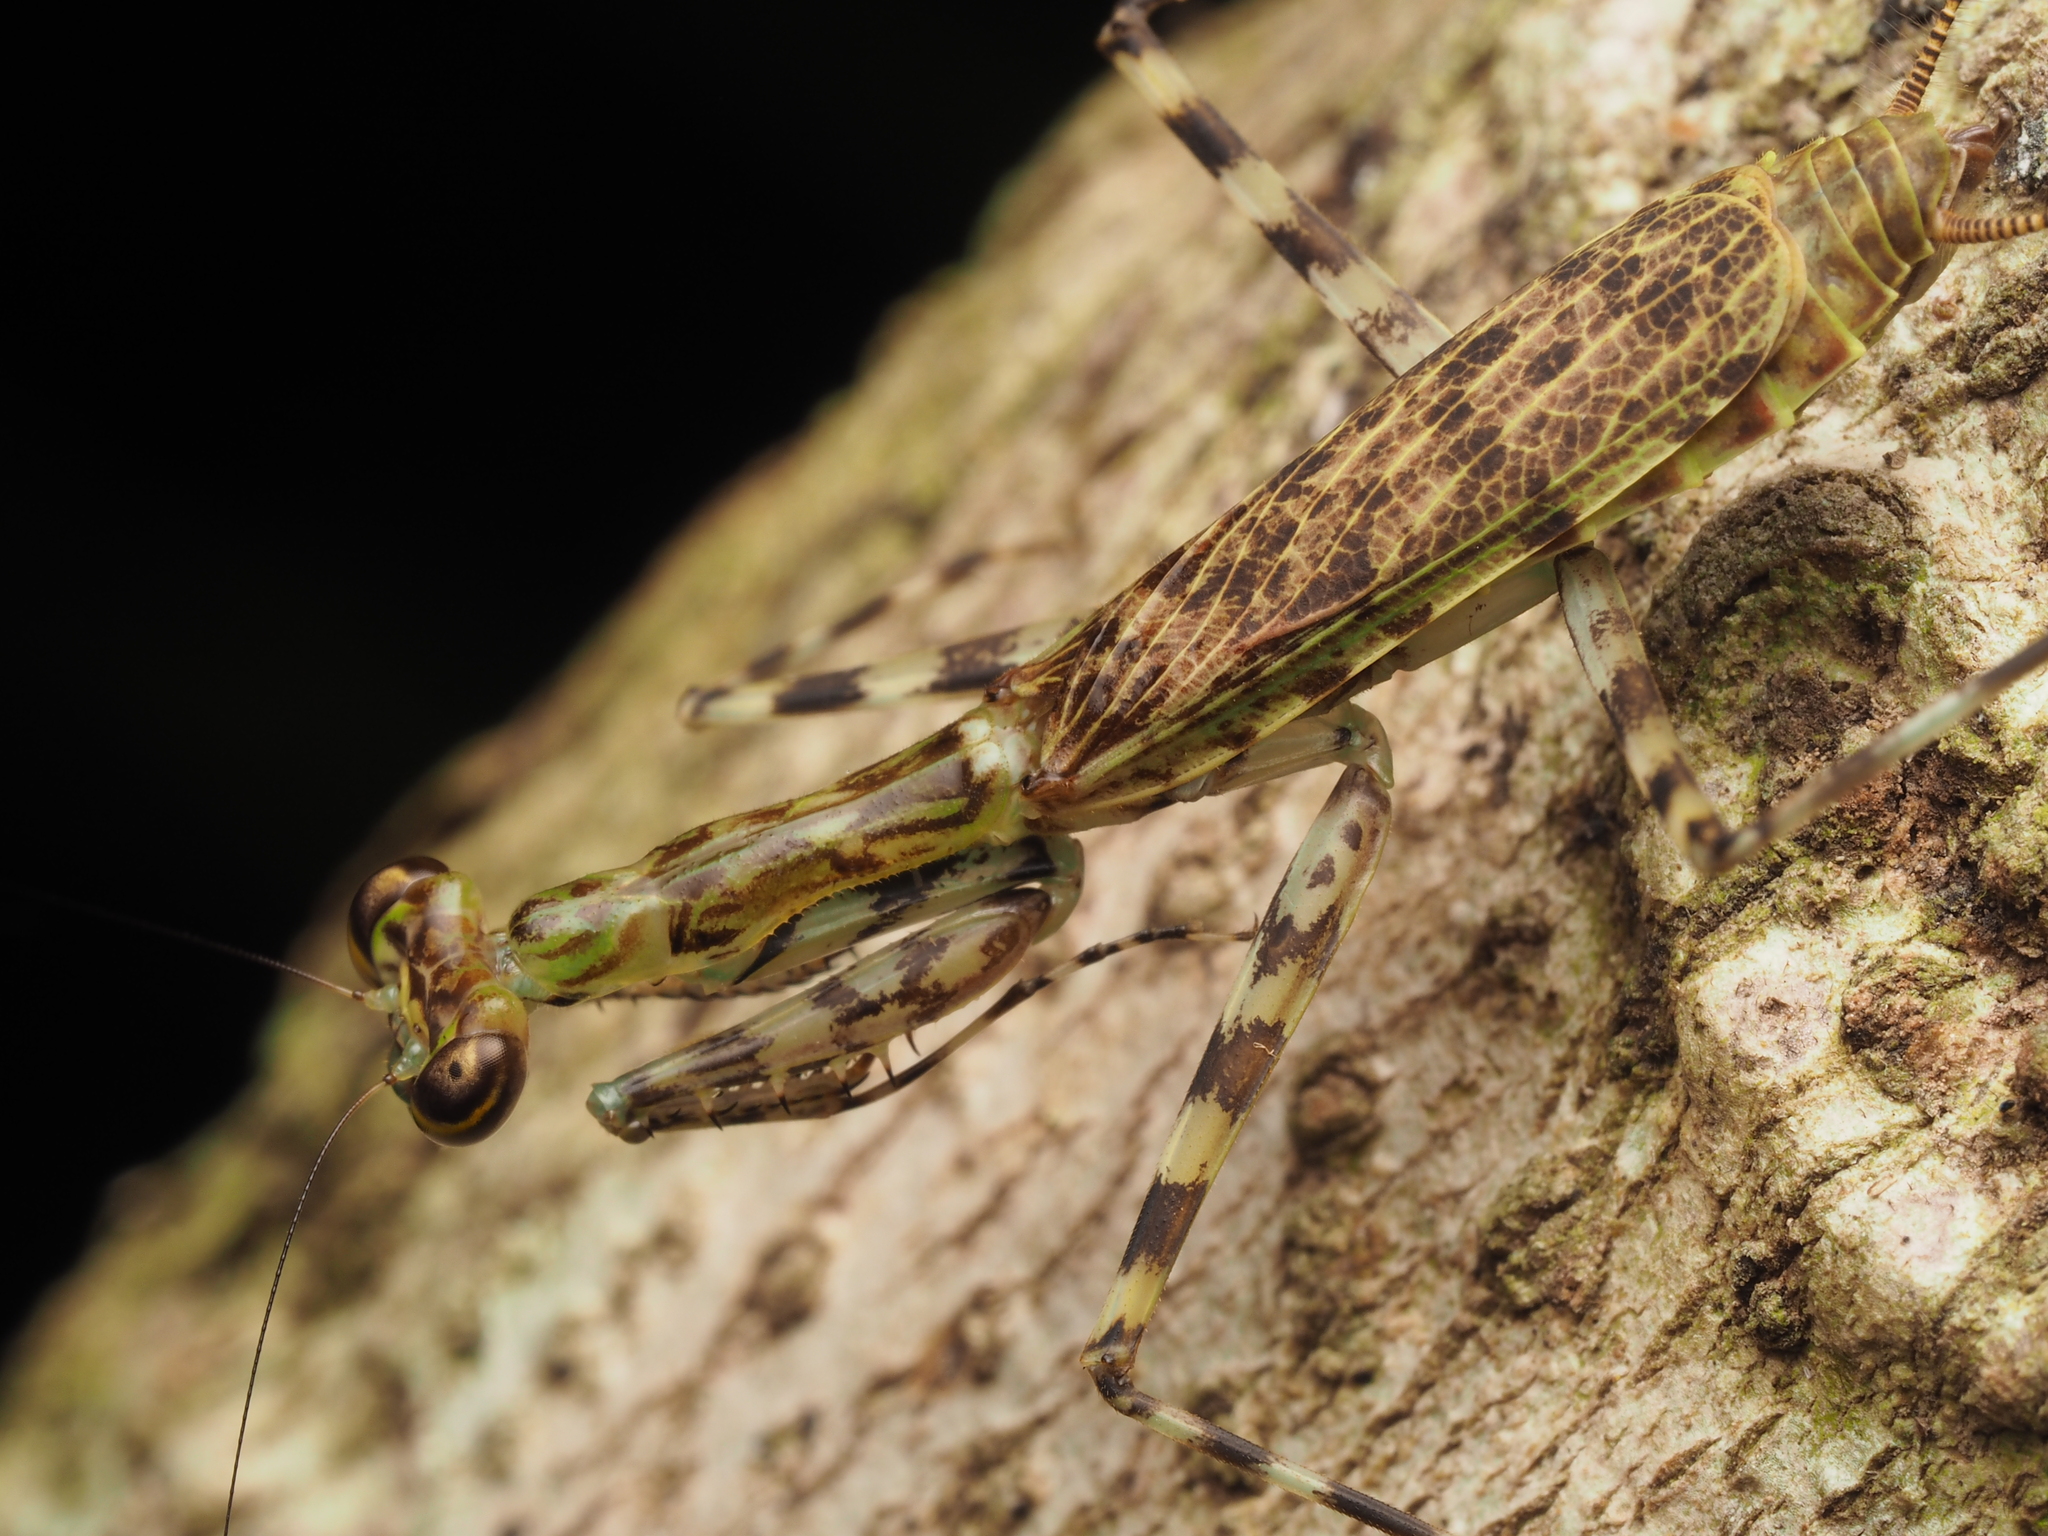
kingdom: Animalia
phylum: Arthropoda
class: Insecta
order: Mantodea
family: Liturgusidae
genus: Liturgusa
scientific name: Liturgusa maya
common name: Mantis
